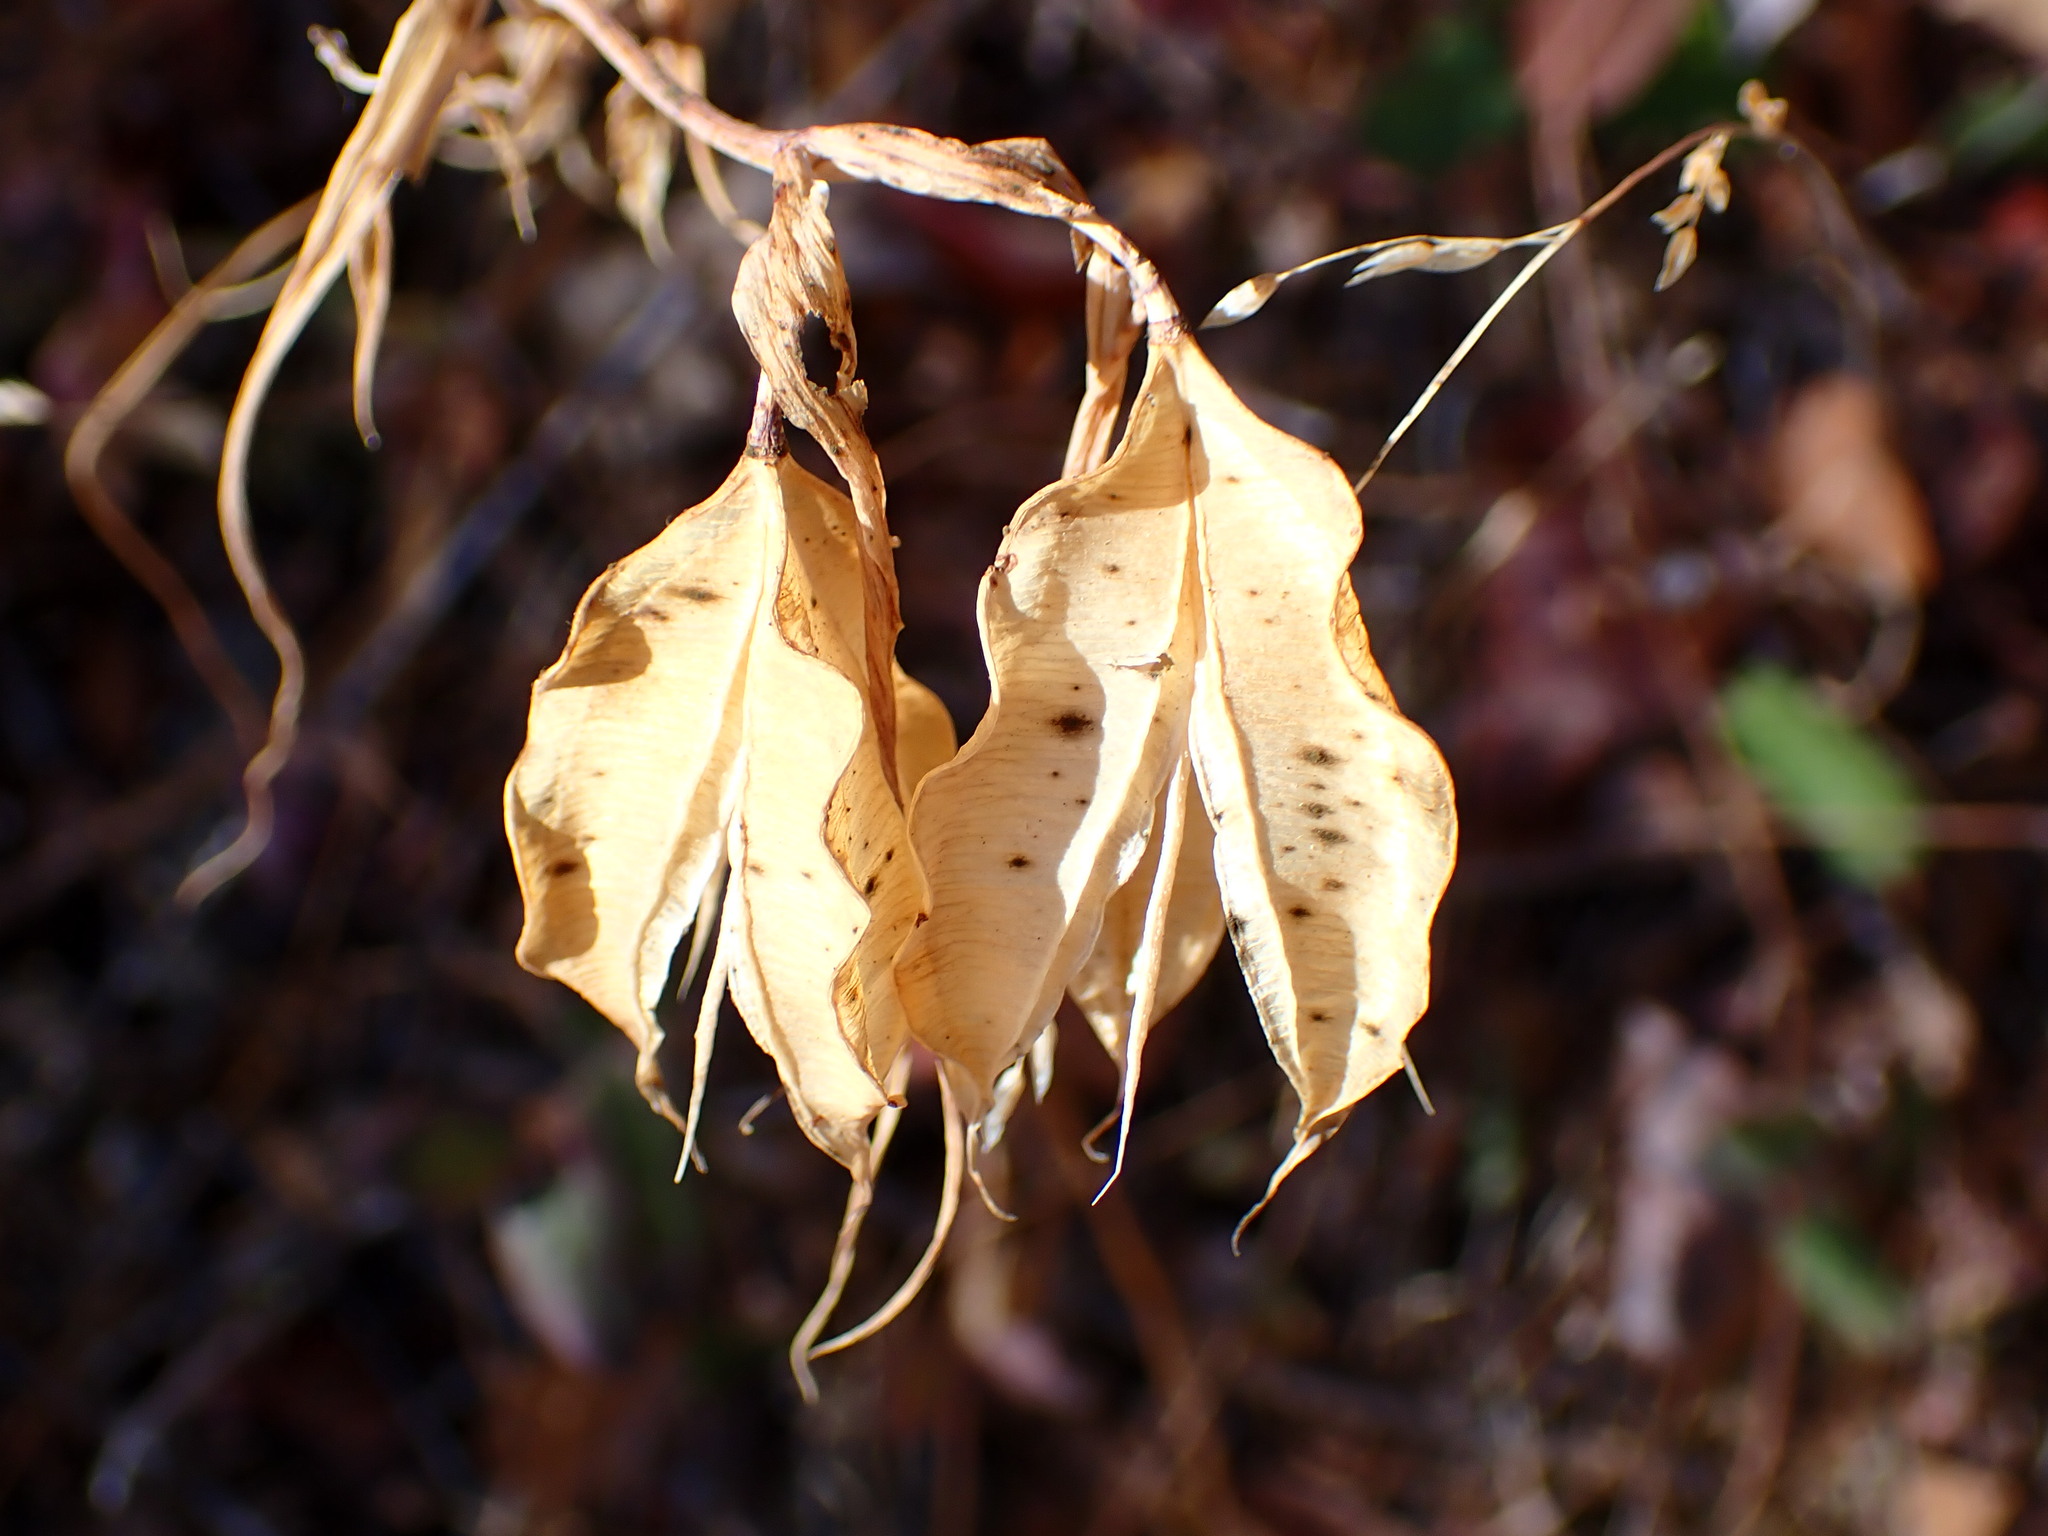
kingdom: Plantae
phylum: Tracheophyta
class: Liliopsida
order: Liliales
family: Liliaceae
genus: Calochortus
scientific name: Calochortus albus
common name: Fairy-lantern
